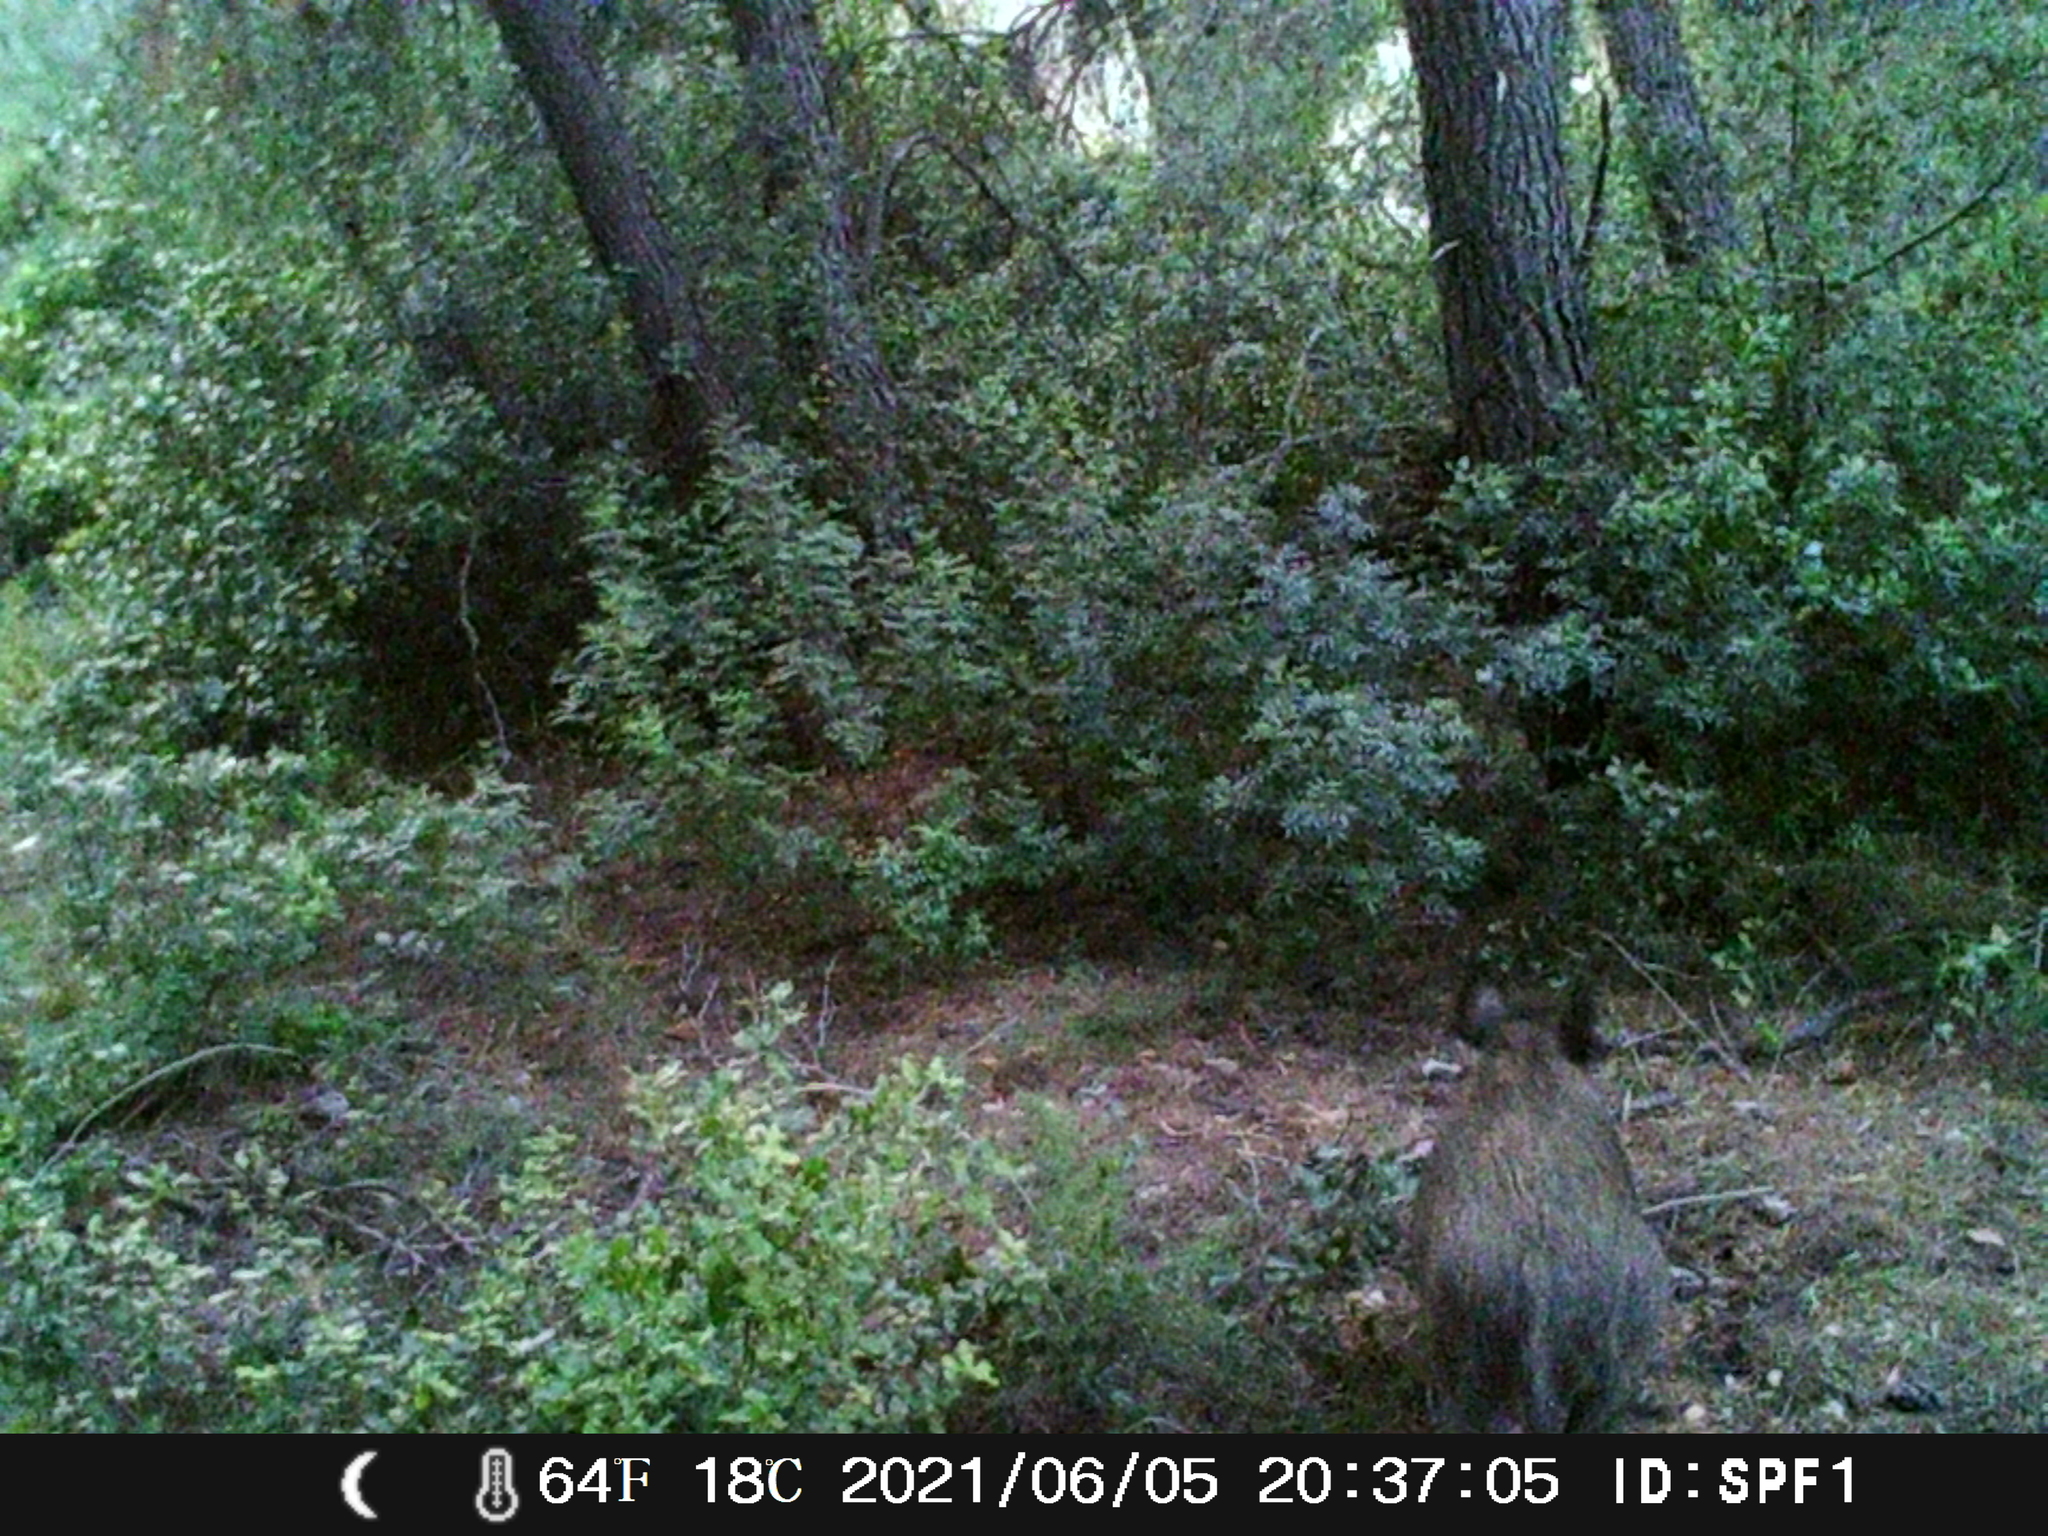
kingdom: Animalia
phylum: Chordata
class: Mammalia
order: Artiodactyla
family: Suidae
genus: Sus
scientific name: Sus scrofa
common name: Wild boar
